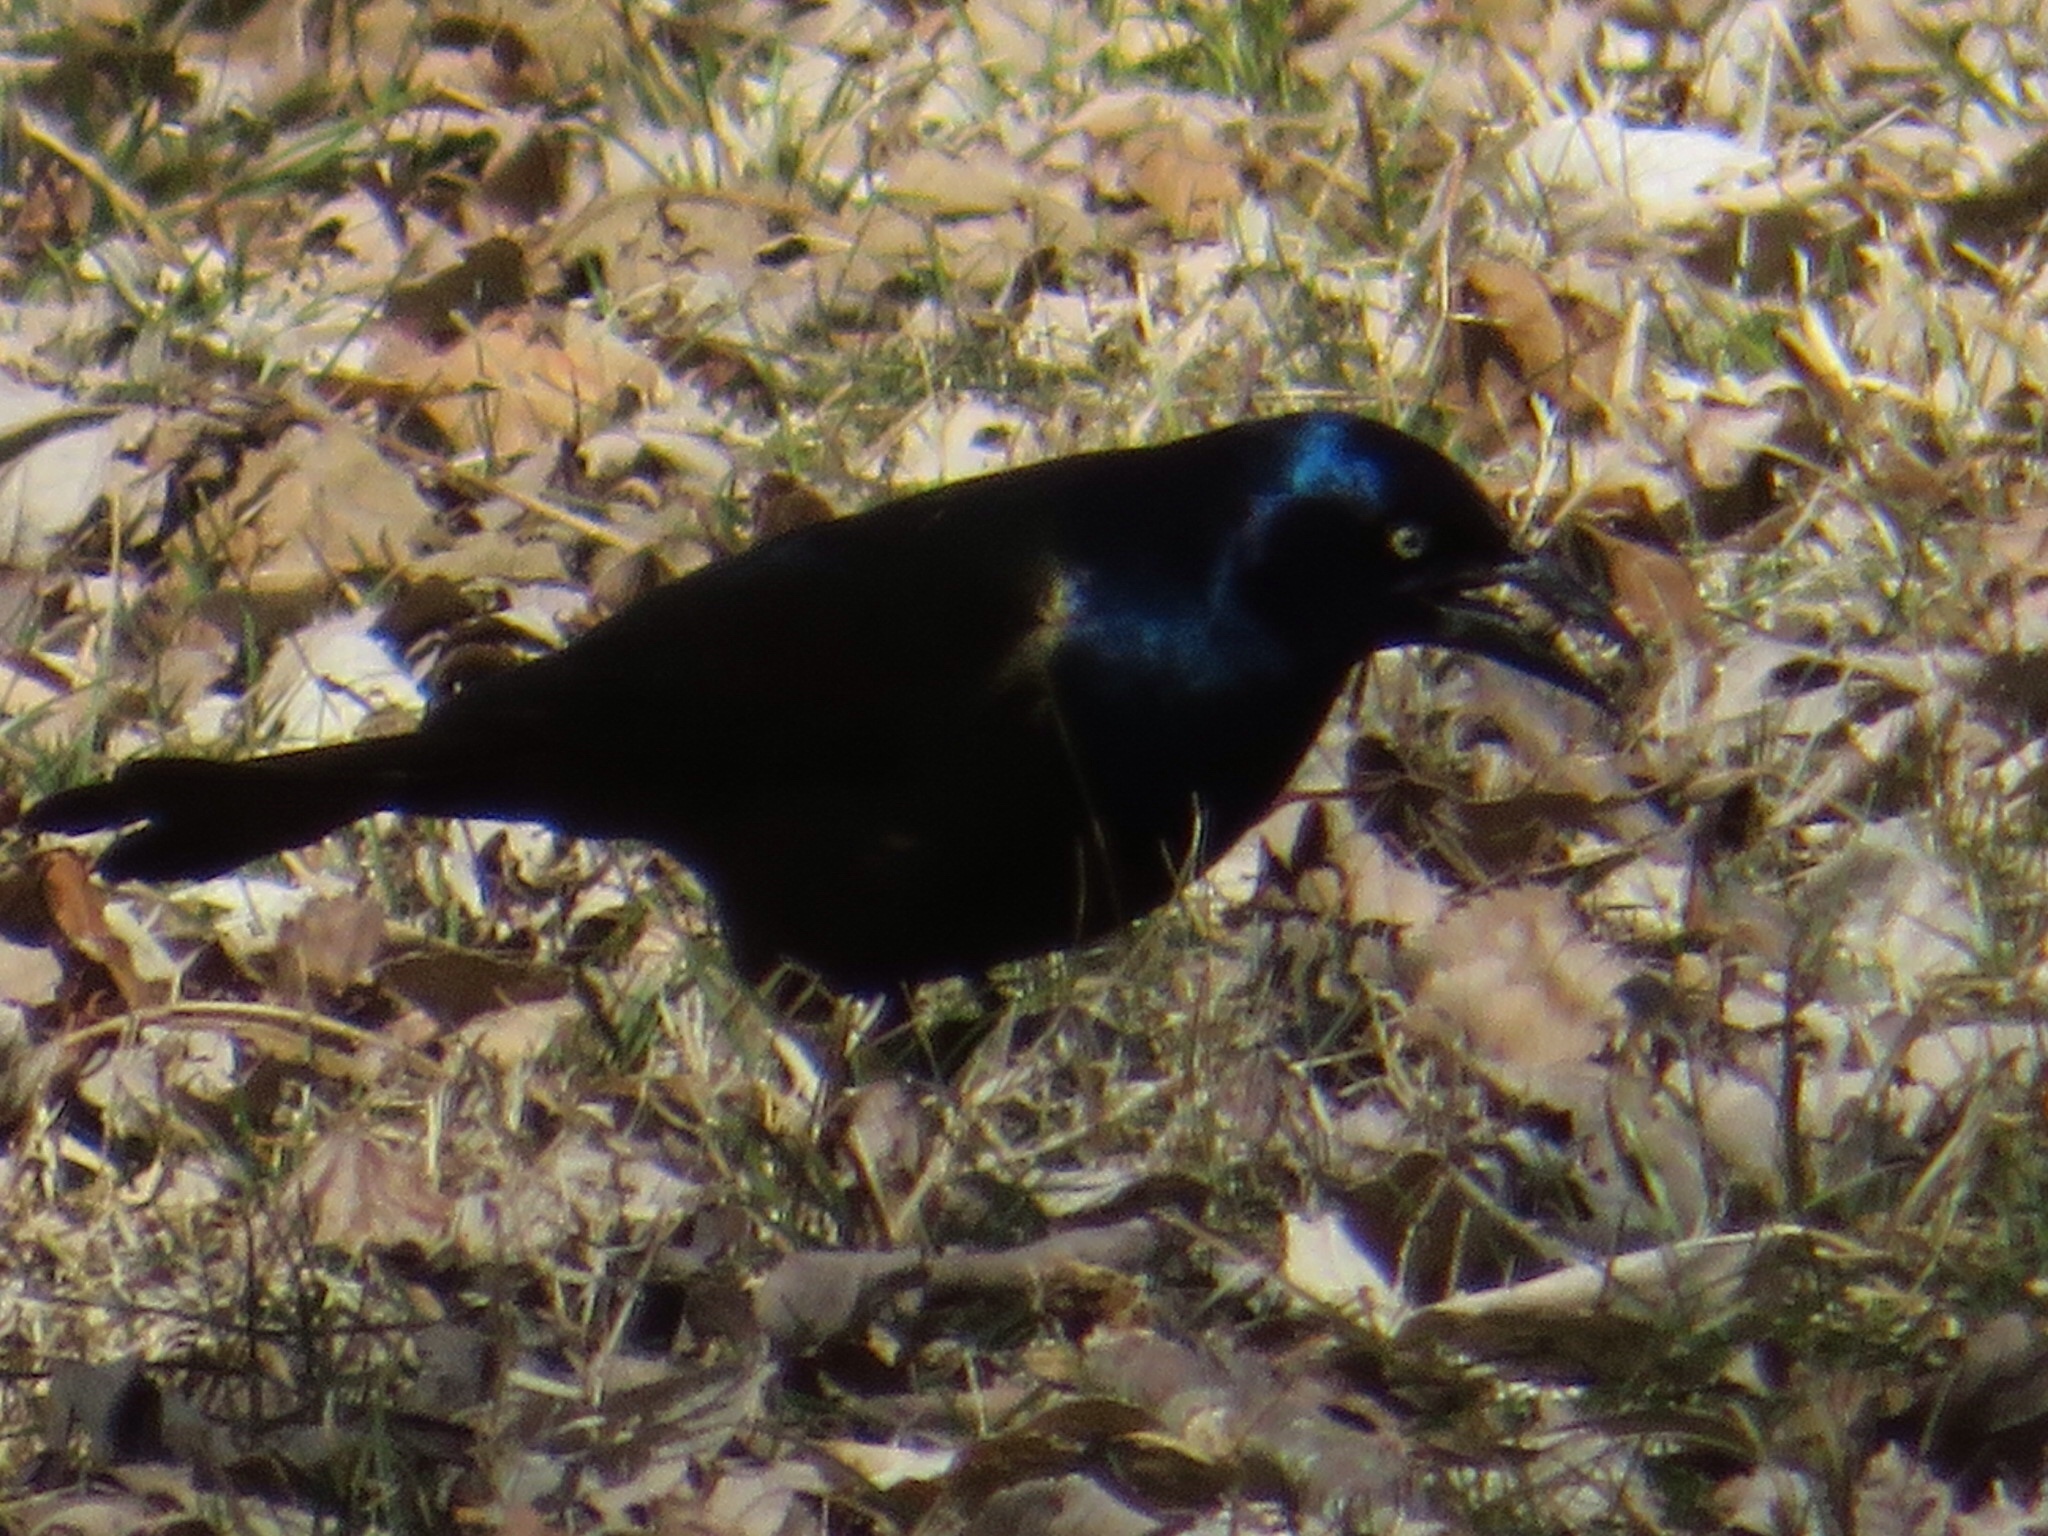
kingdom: Animalia
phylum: Chordata
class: Aves
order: Passeriformes
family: Icteridae
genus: Quiscalus
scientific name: Quiscalus quiscula
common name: Common grackle
